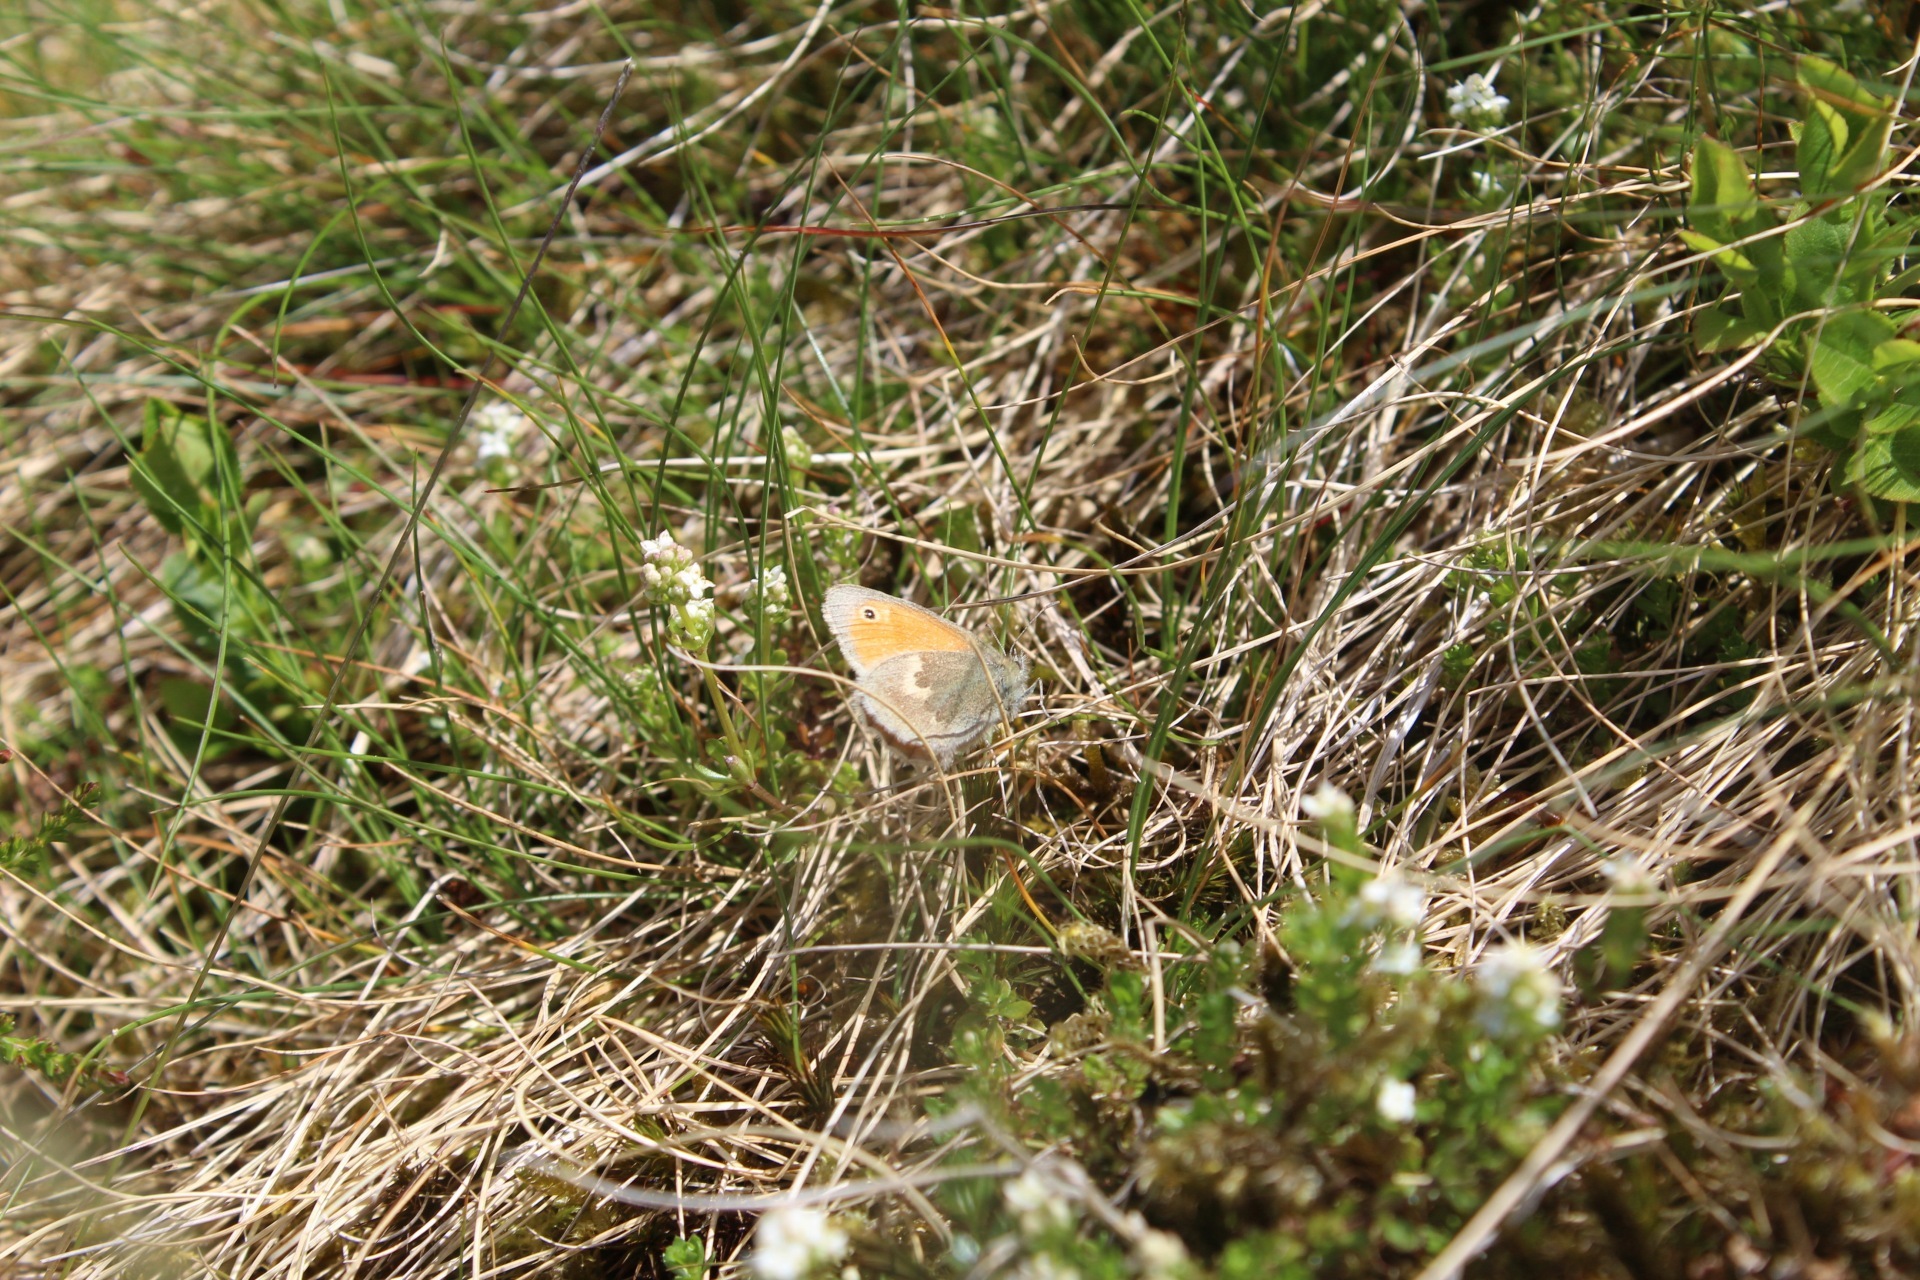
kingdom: Animalia
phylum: Arthropoda
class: Insecta
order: Lepidoptera
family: Nymphalidae
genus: Coenonympha
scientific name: Coenonympha pamphilus
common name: Small heath
